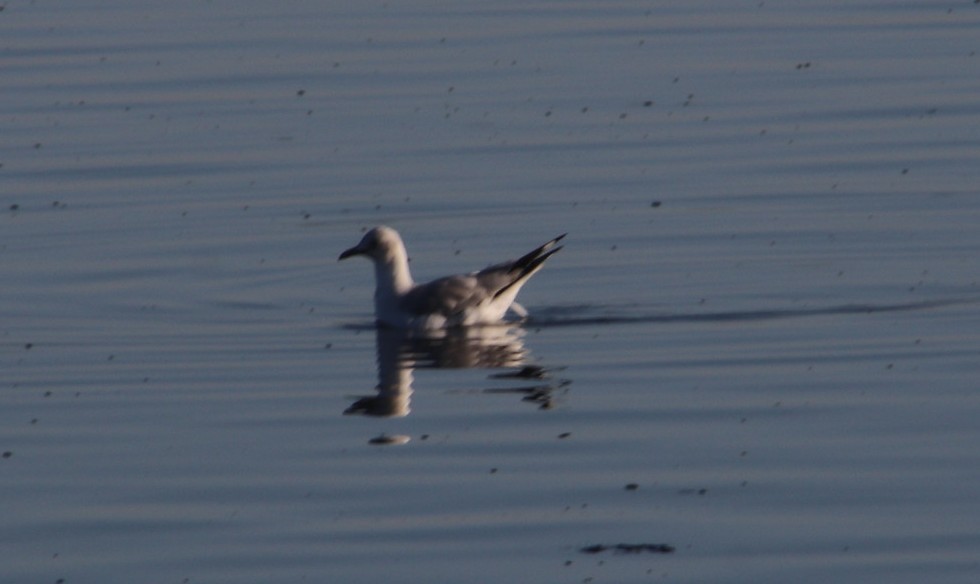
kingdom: Animalia
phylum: Chordata
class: Aves
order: Charadriiformes
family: Laridae
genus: Chroicocephalus
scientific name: Chroicocephalus hartlaubii
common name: Hartlaub's gull
